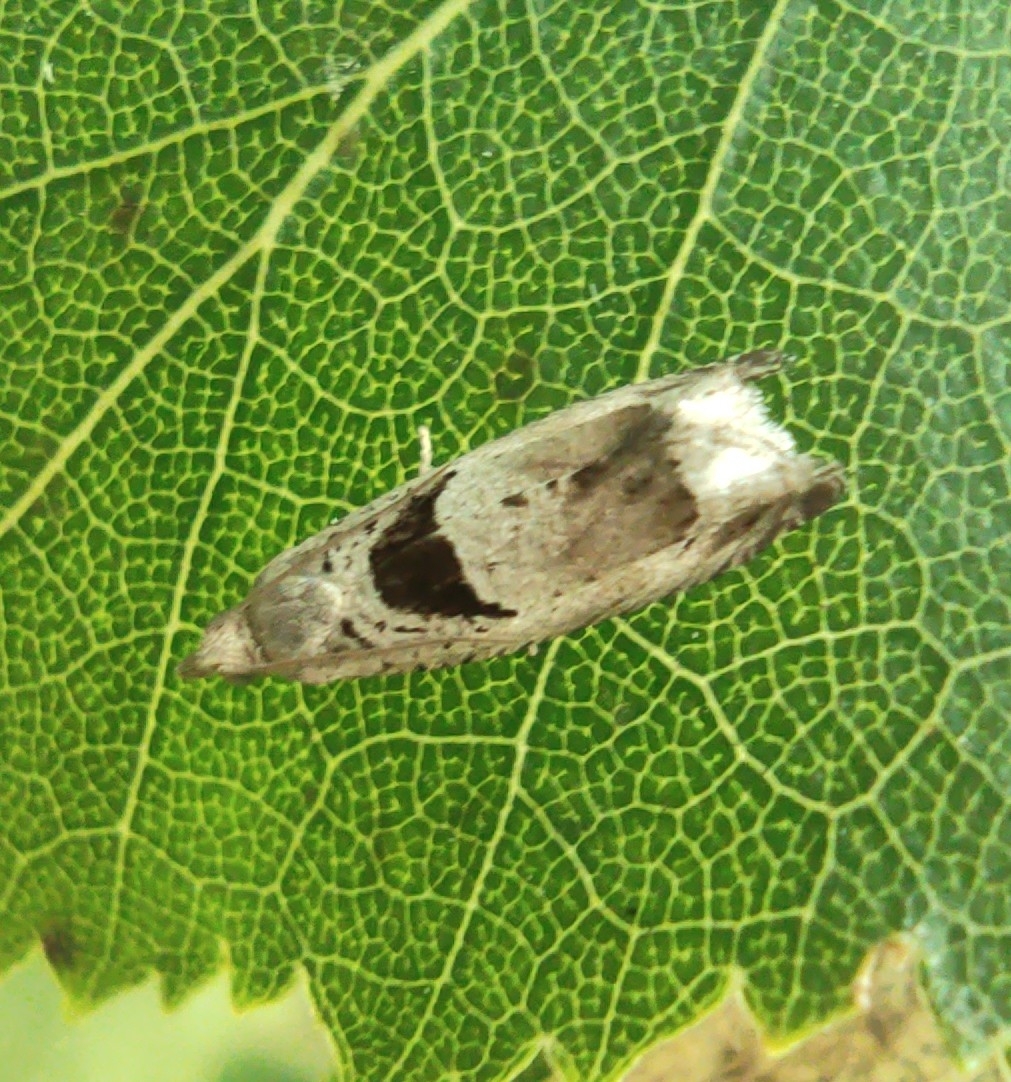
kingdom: Animalia
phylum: Arthropoda
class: Insecta
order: Lepidoptera
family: Tortricidae
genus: Epinotia
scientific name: Epinotia ramella
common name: Small birch bell
